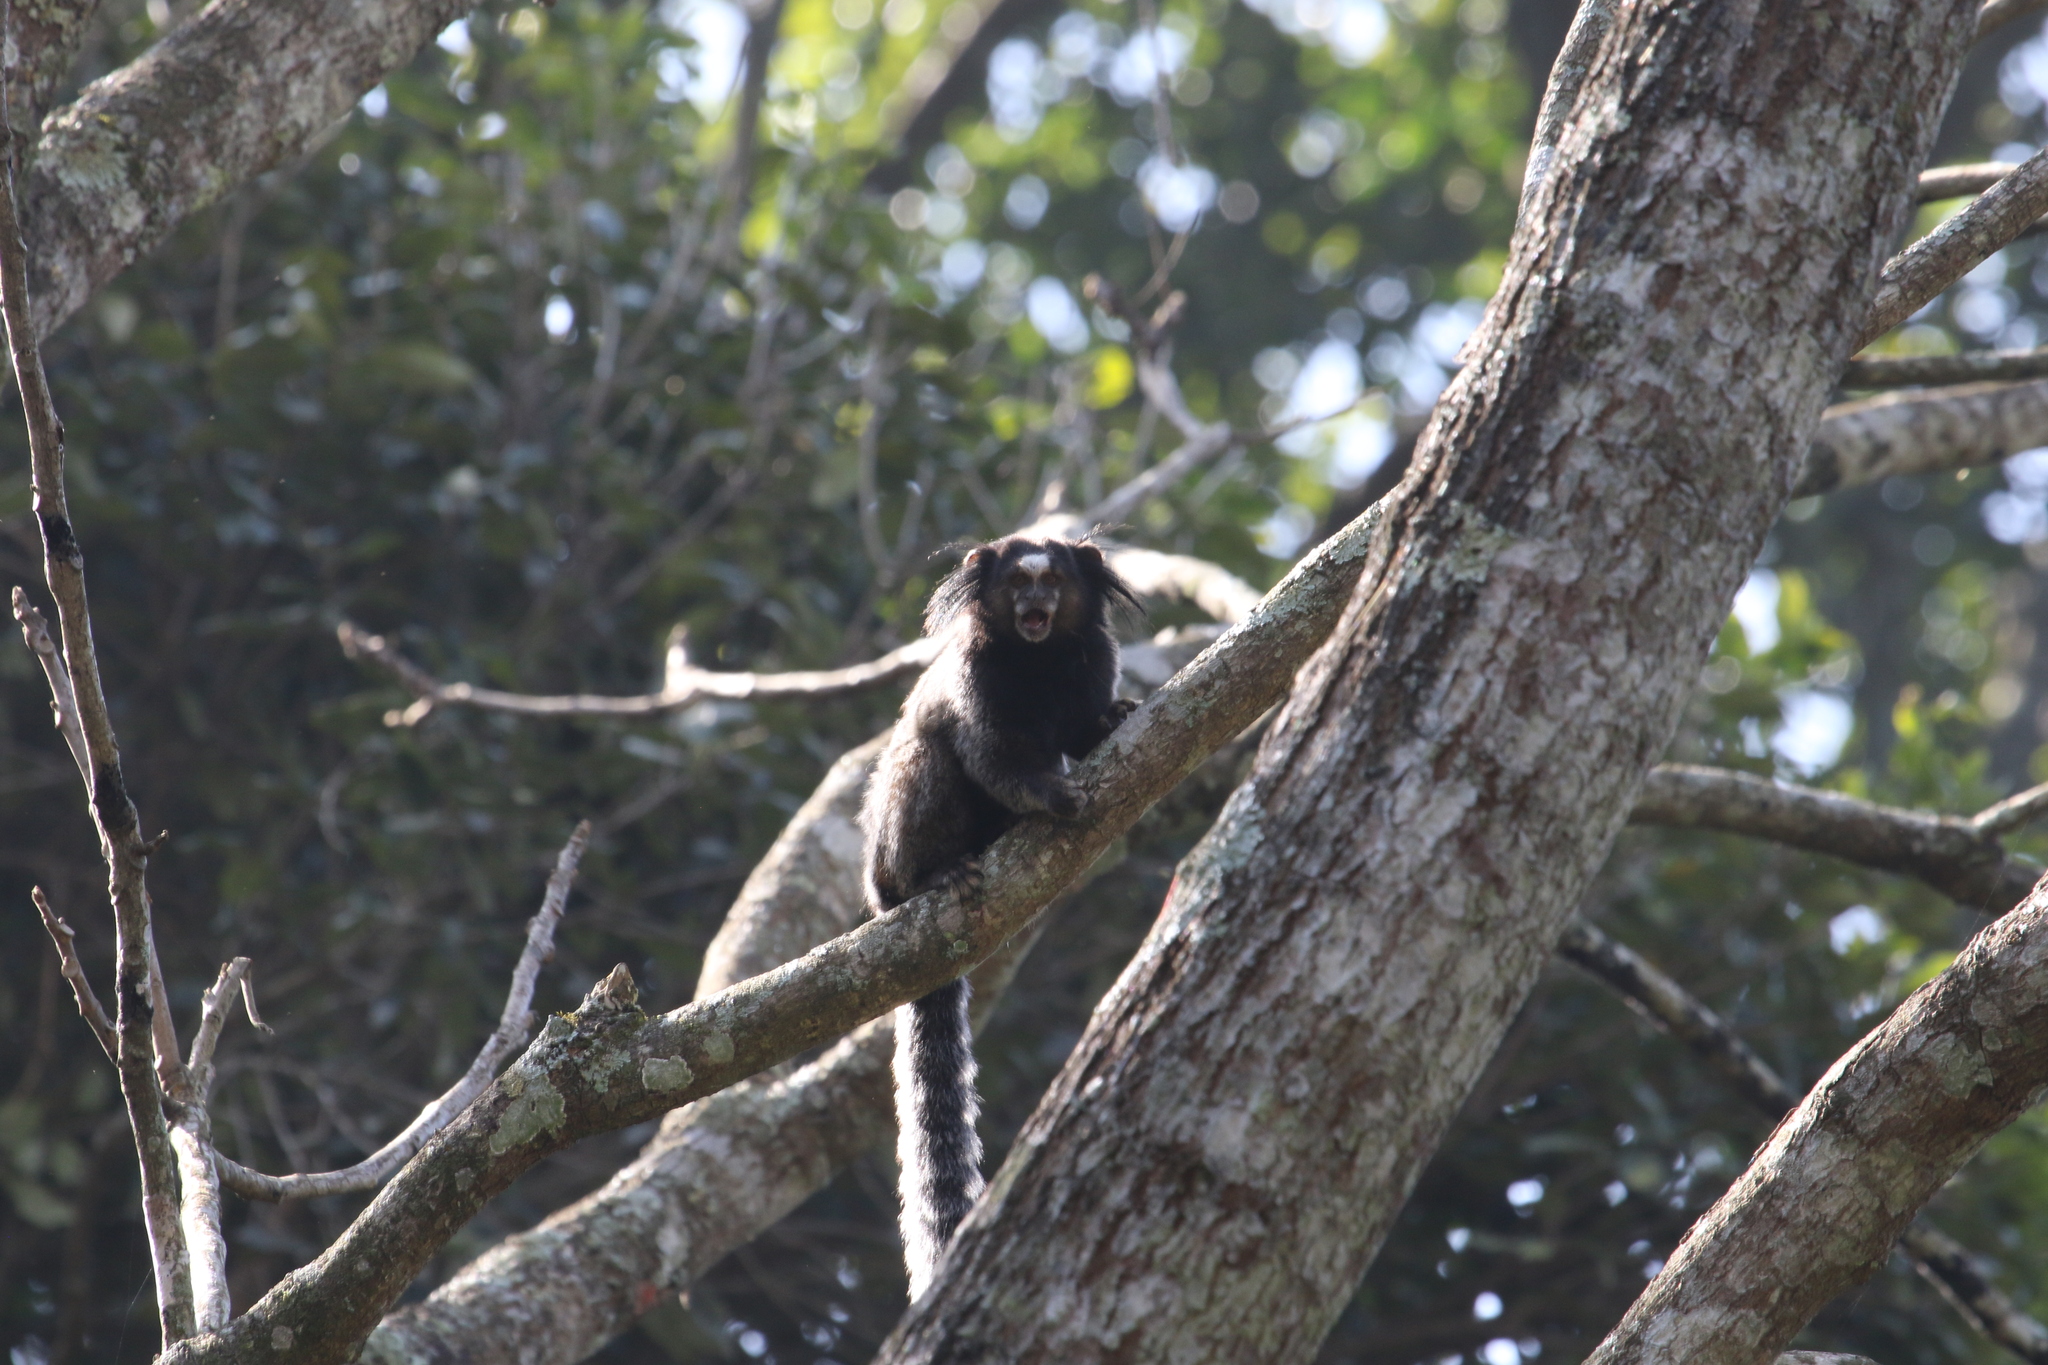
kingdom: Animalia
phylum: Chordata
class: Mammalia
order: Primates
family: Callitrichidae
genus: Callithrix
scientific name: Callithrix penicillata
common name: Black-tufted marmoset
